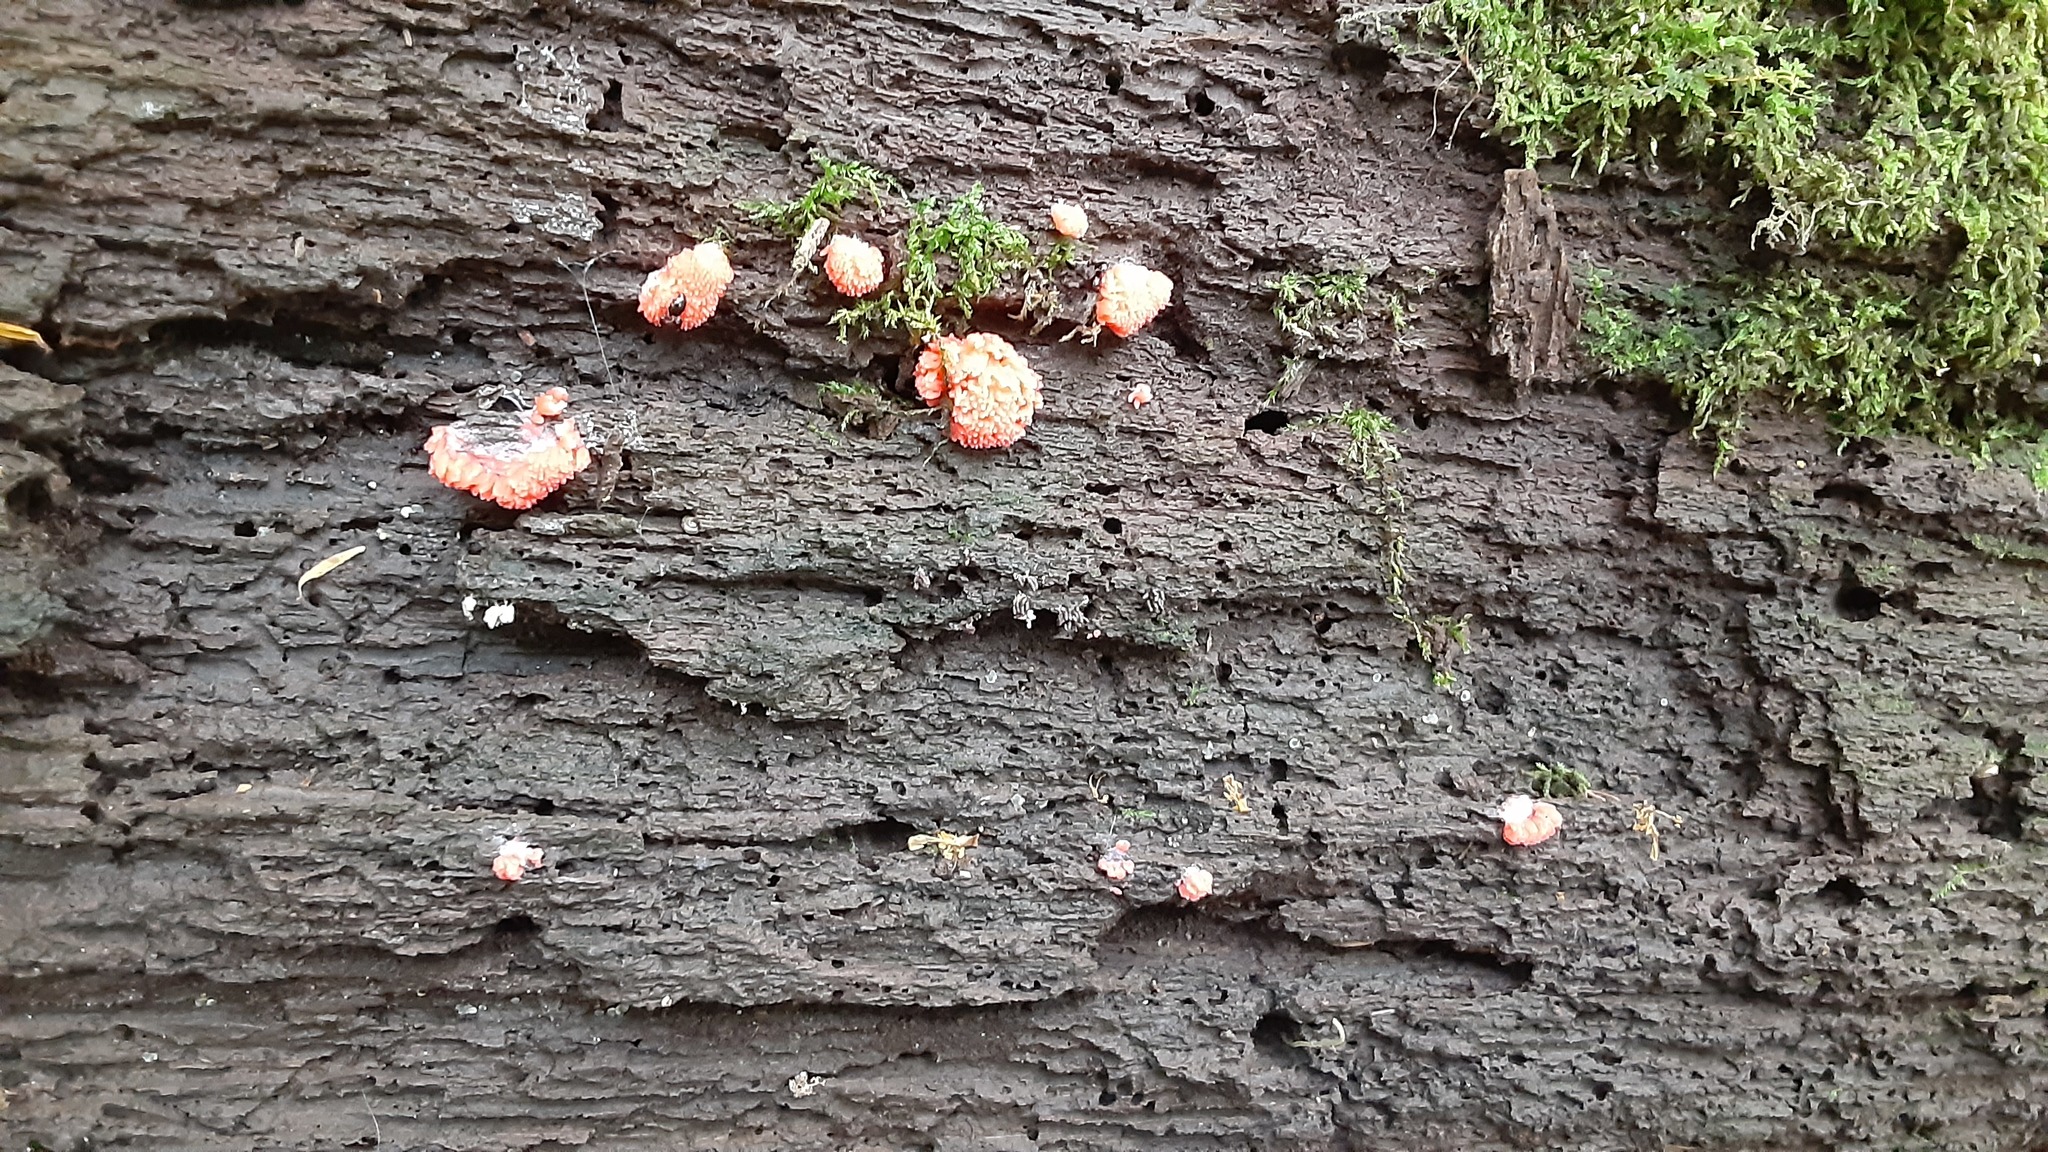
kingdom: Protozoa
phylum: Mycetozoa
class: Myxomycetes
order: Cribrariales
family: Tubiferaceae
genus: Tubifera
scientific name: Tubifera ferruginosa
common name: Red raspberry slime mold
